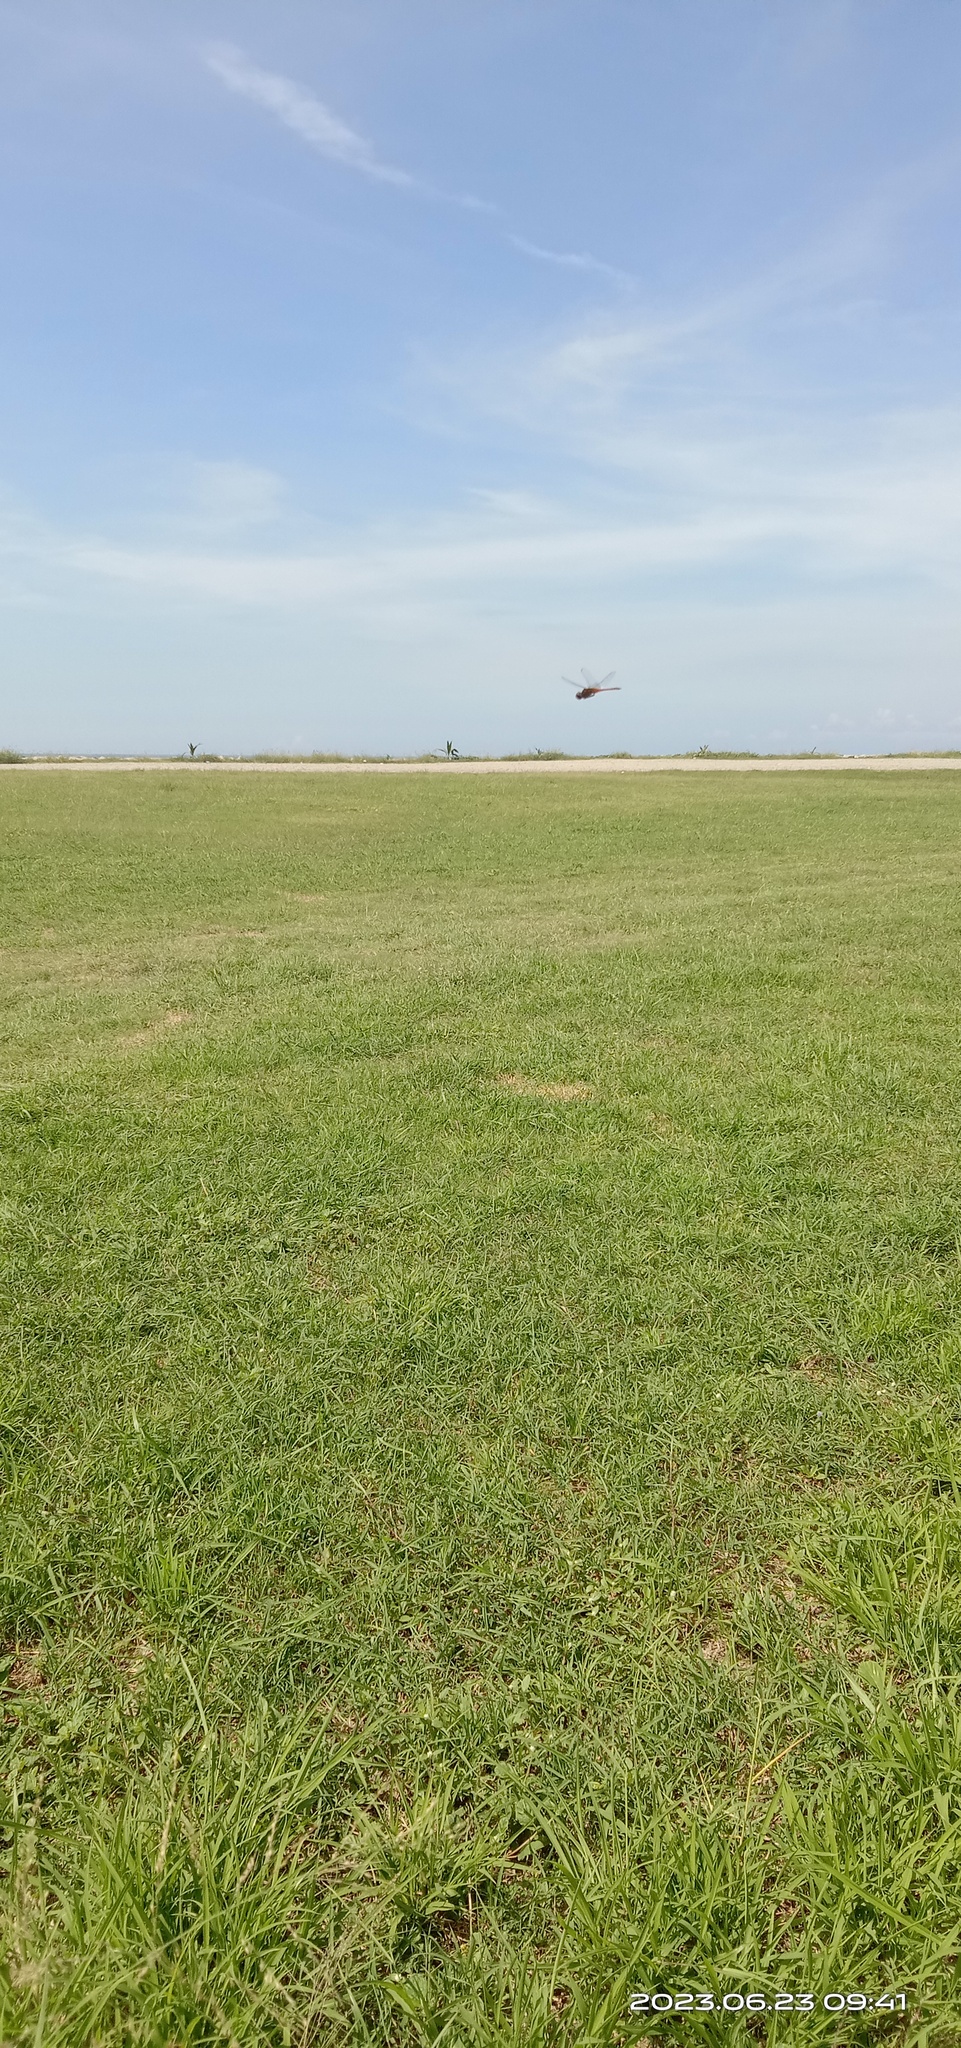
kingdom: Animalia
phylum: Arthropoda
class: Insecta
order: Odonata
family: Libellulidae
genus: Macrodiplax
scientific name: Macrodiplax cora
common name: Coastal glider
